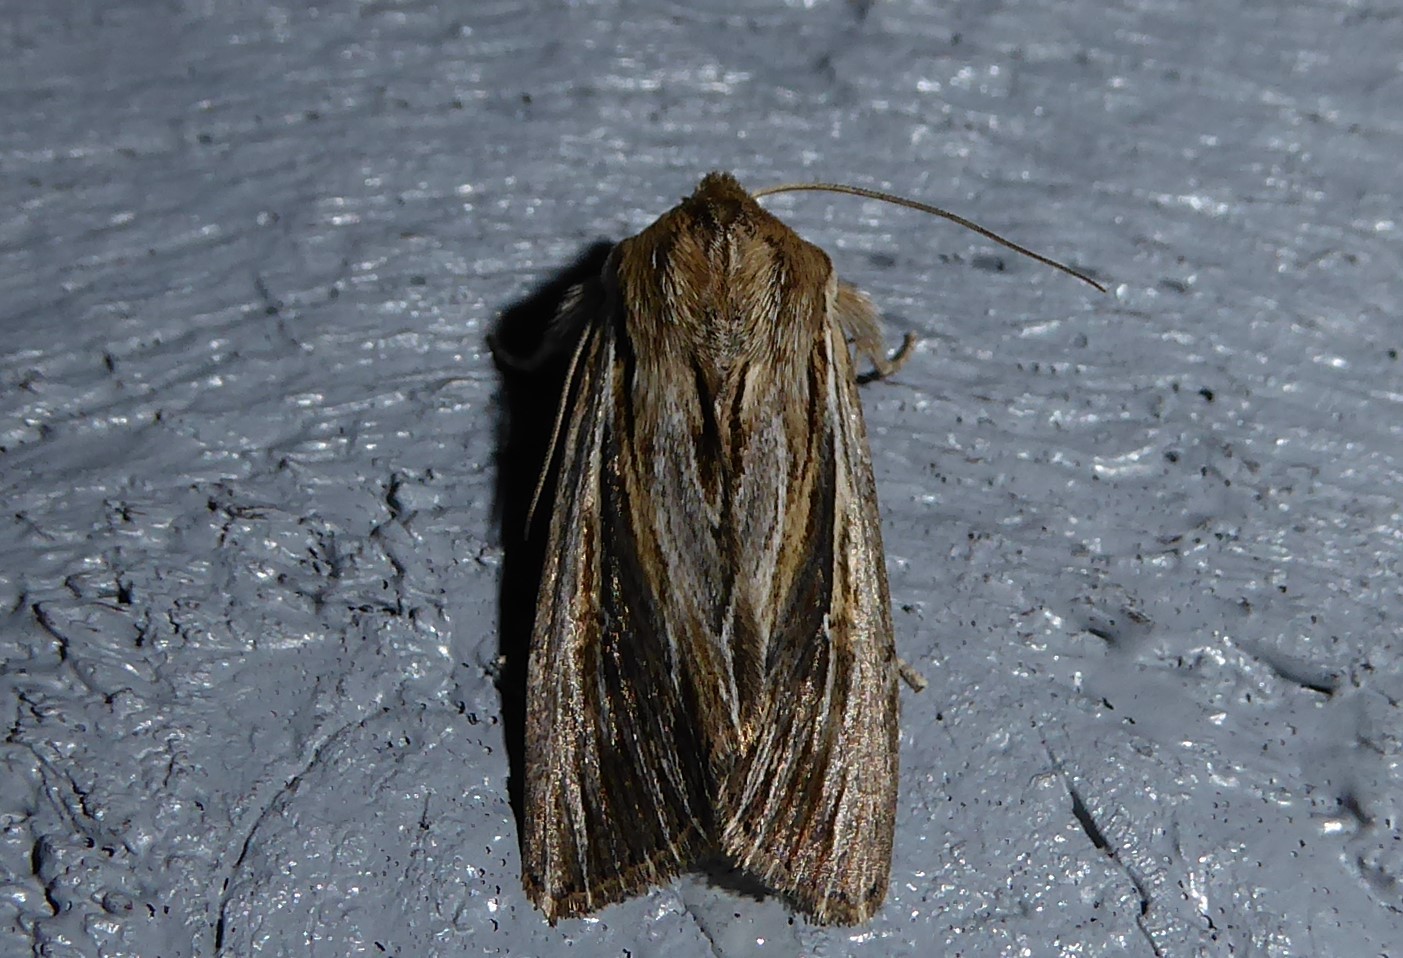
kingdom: Animalia
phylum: Arthropoda
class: Insecta
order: Lepidoptera
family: Noctuidae
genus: Persectania
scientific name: Persectania aversa
